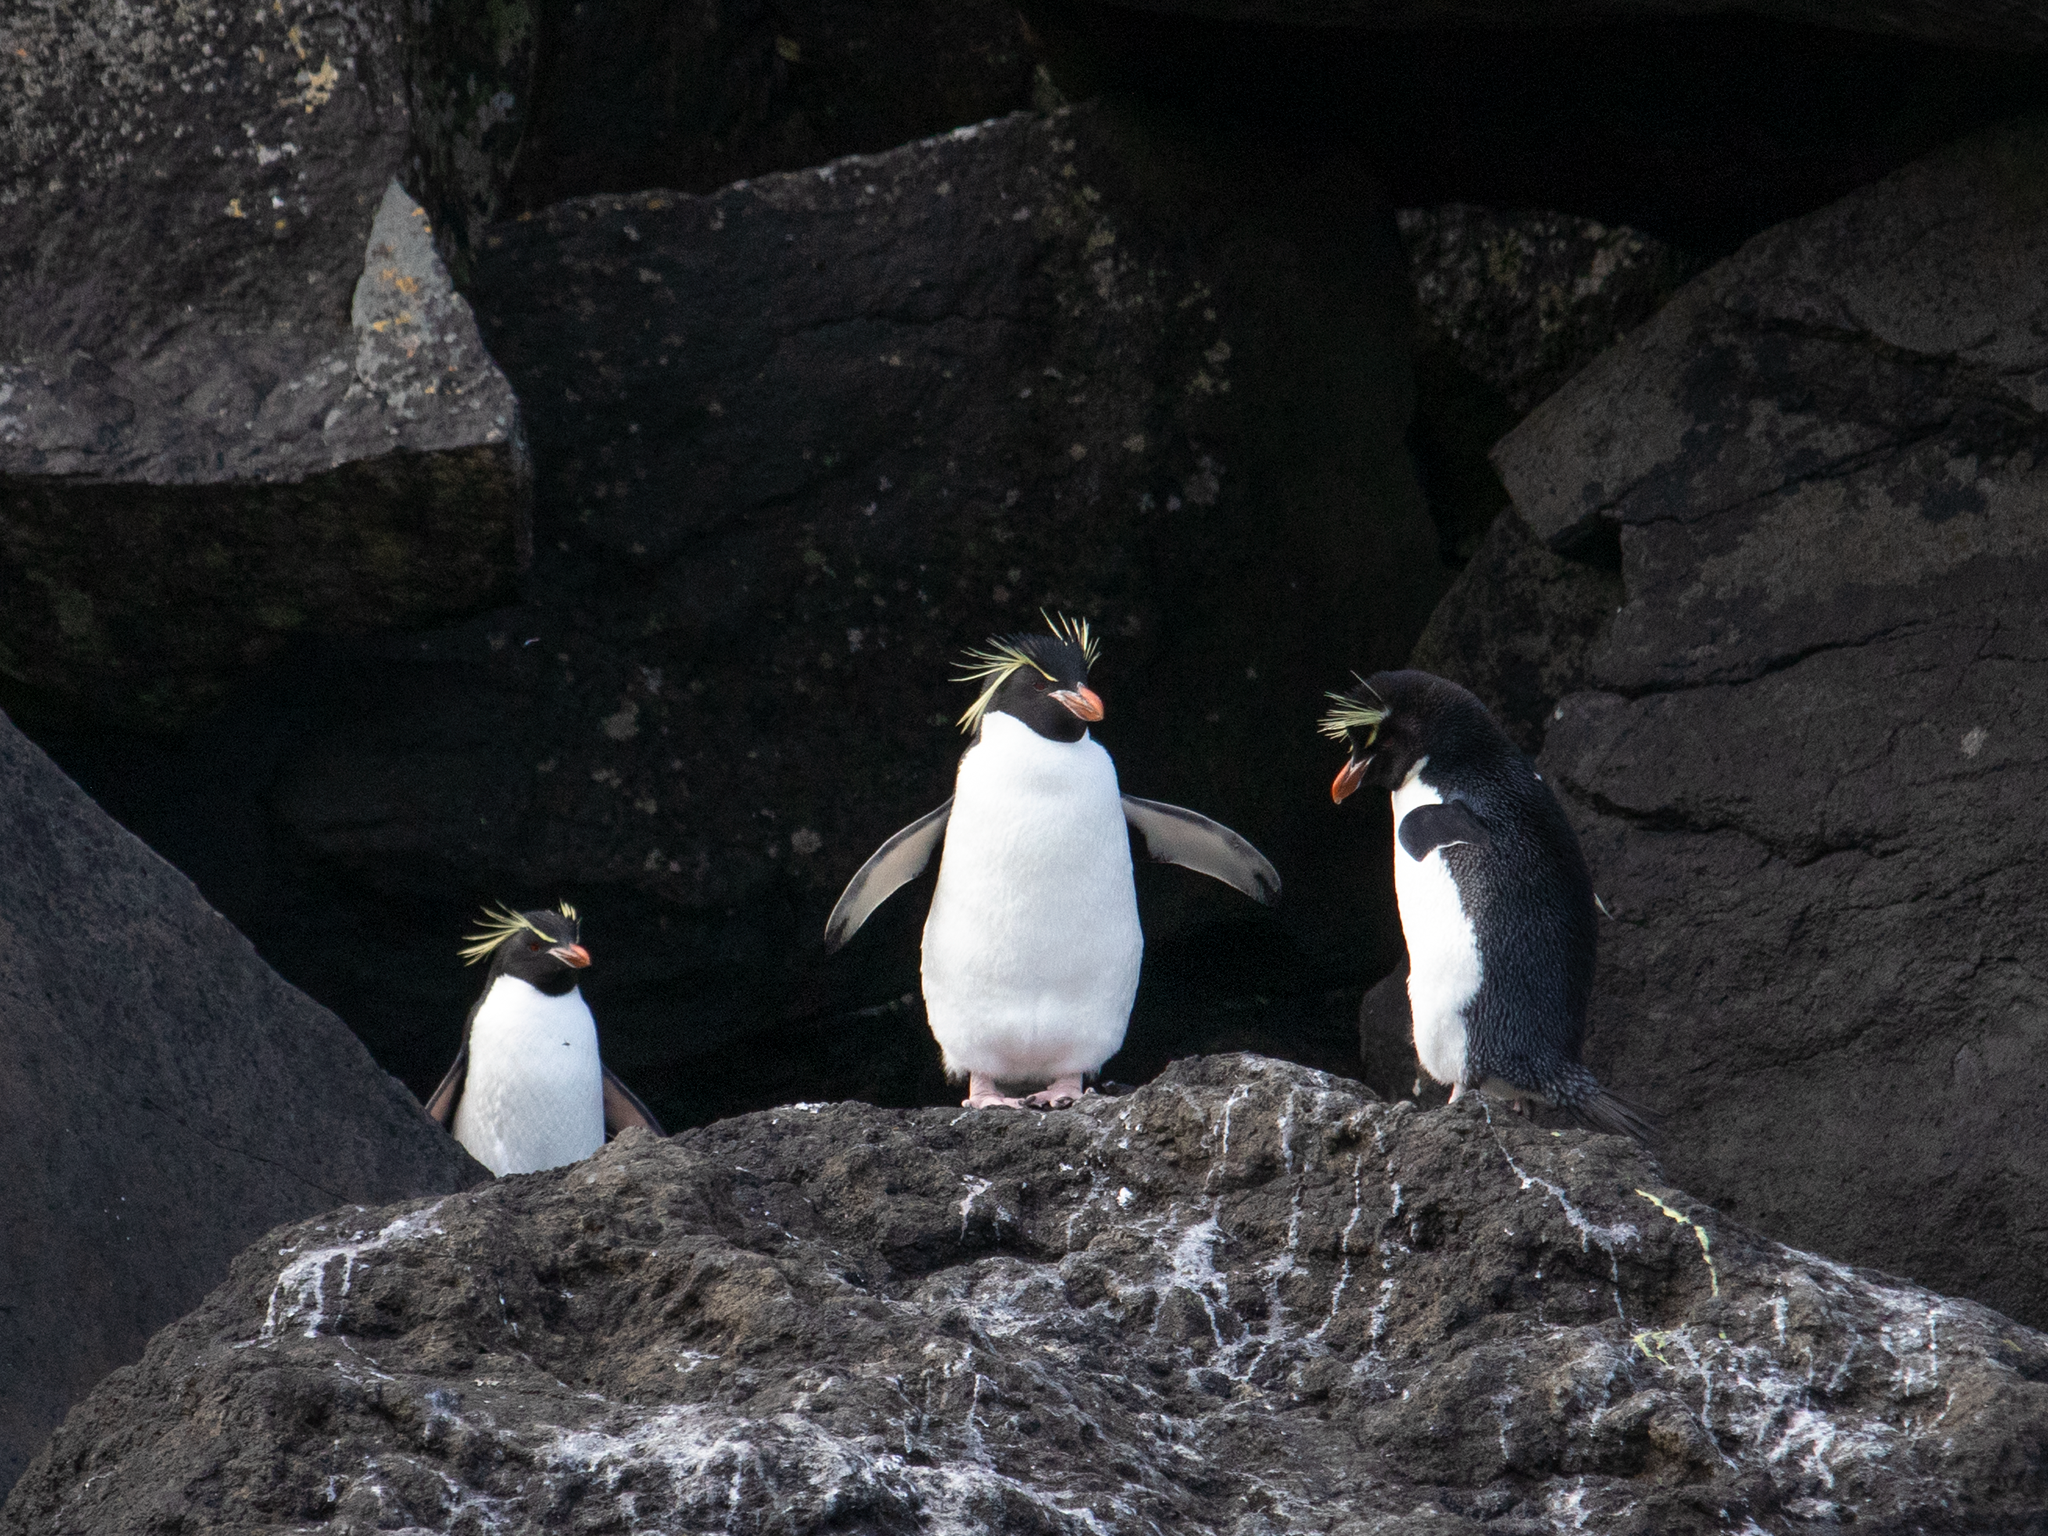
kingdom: Animalia
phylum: Chordata
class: Aves
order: Sphenisciformes
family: Spheniscidae
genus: Eudyptes
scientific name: Eudyptes filholi
